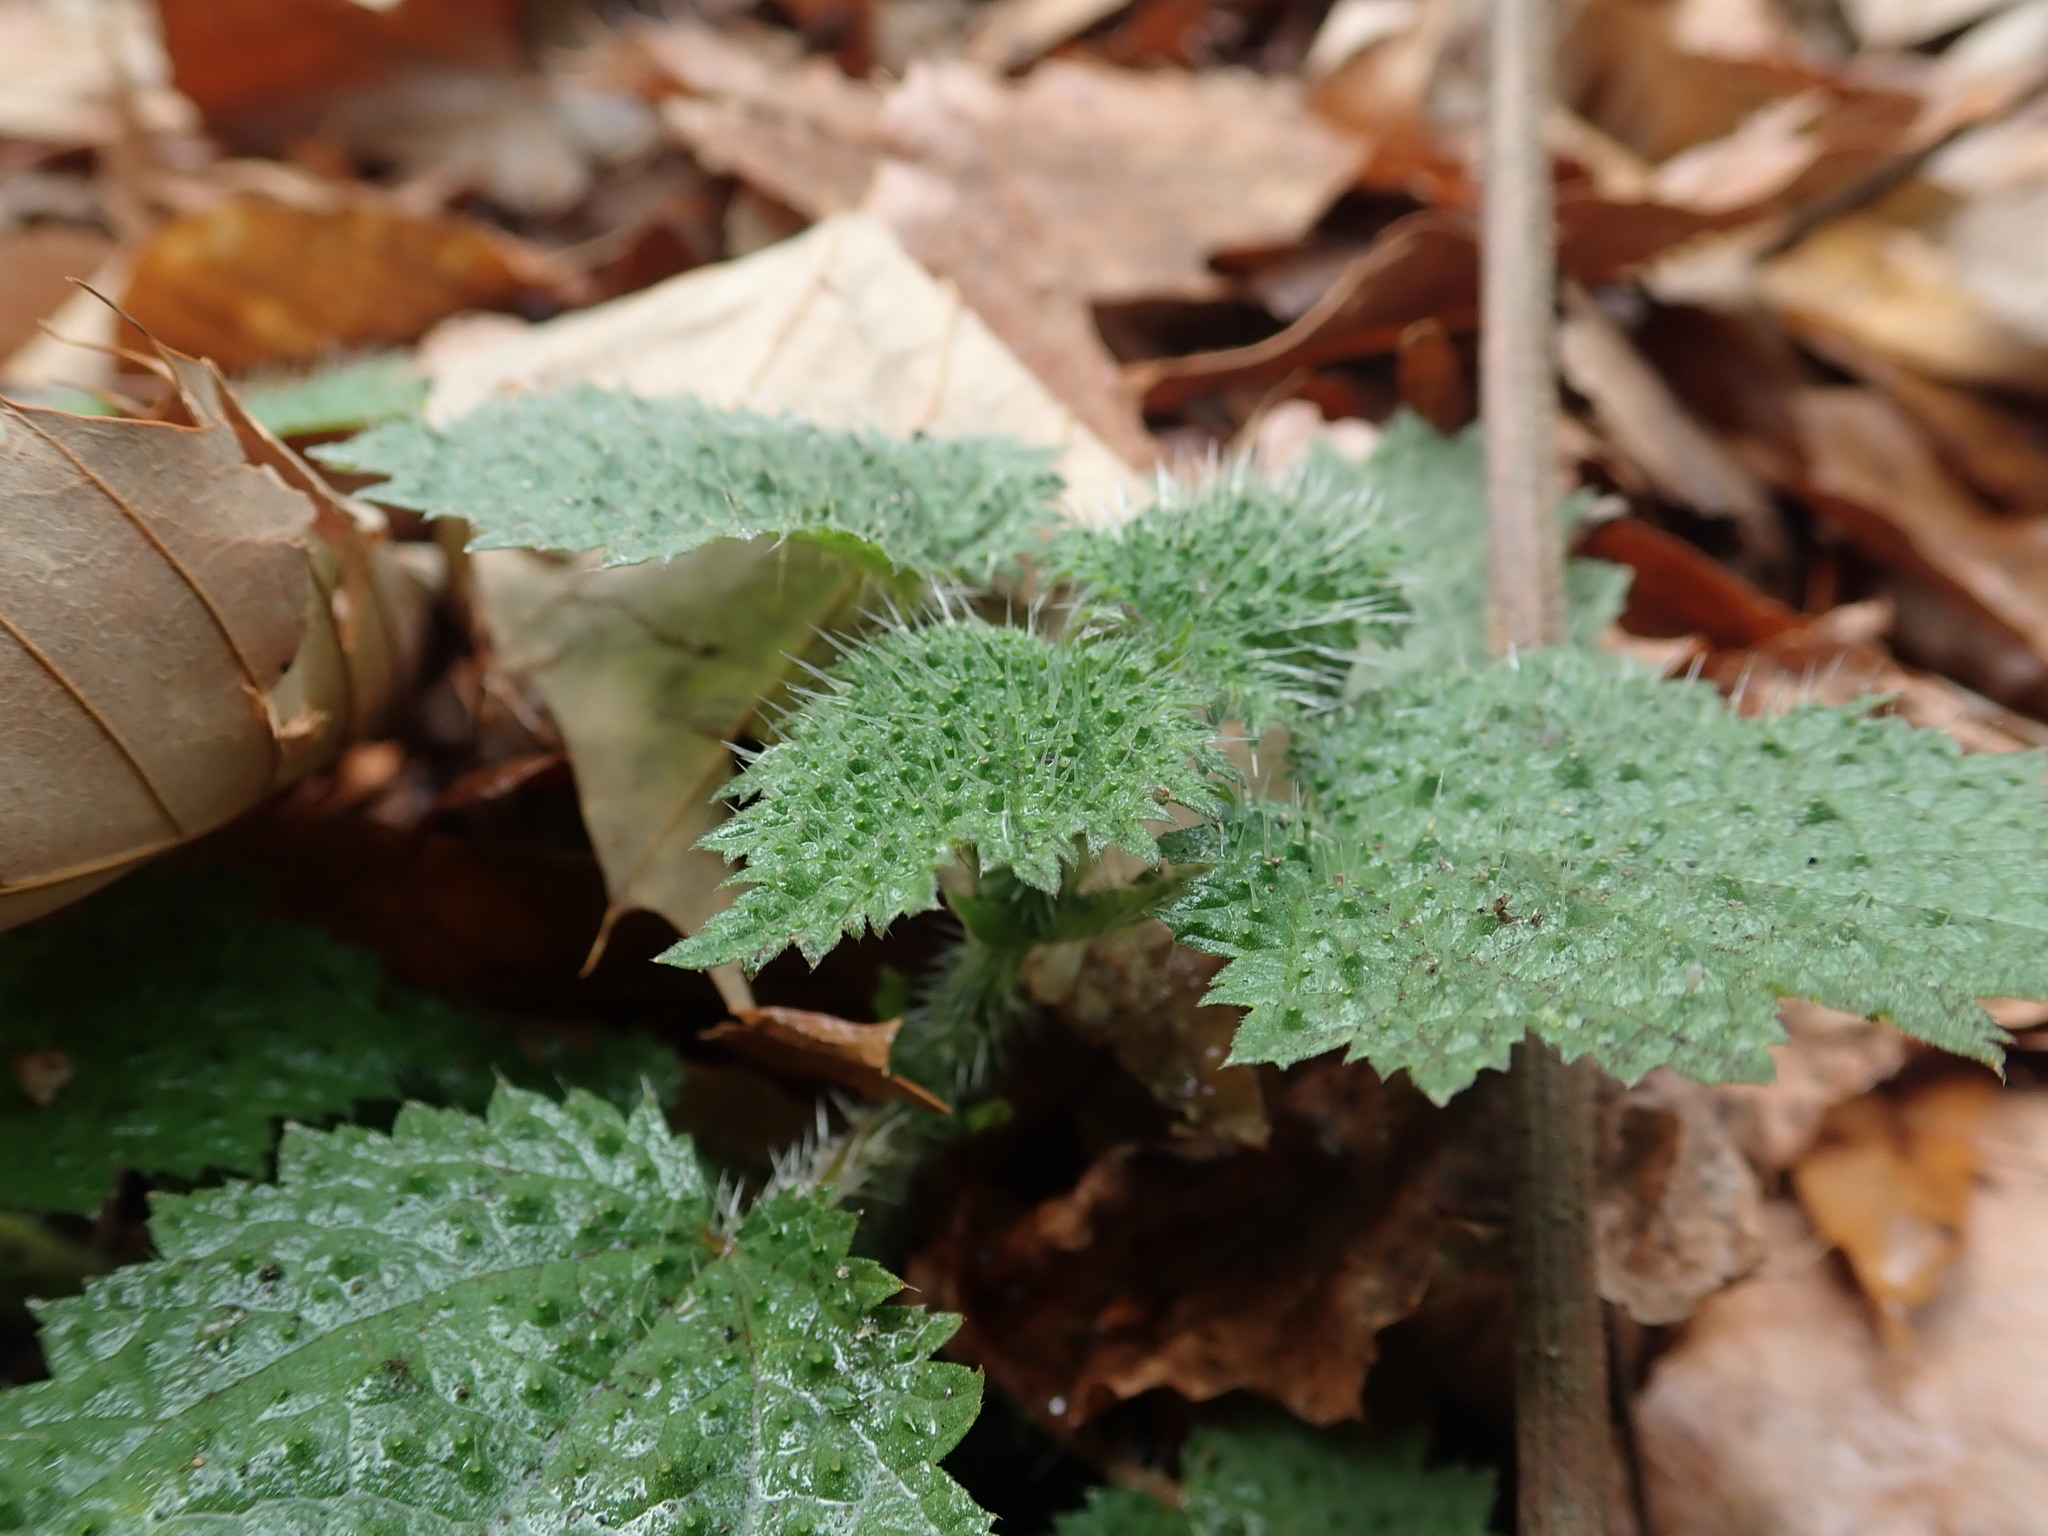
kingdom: Plantae
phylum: Tracheophyta
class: Magnoliopsida
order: Rosales
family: Urticaceae
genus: Urtica
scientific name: Urtica thunbergiana
